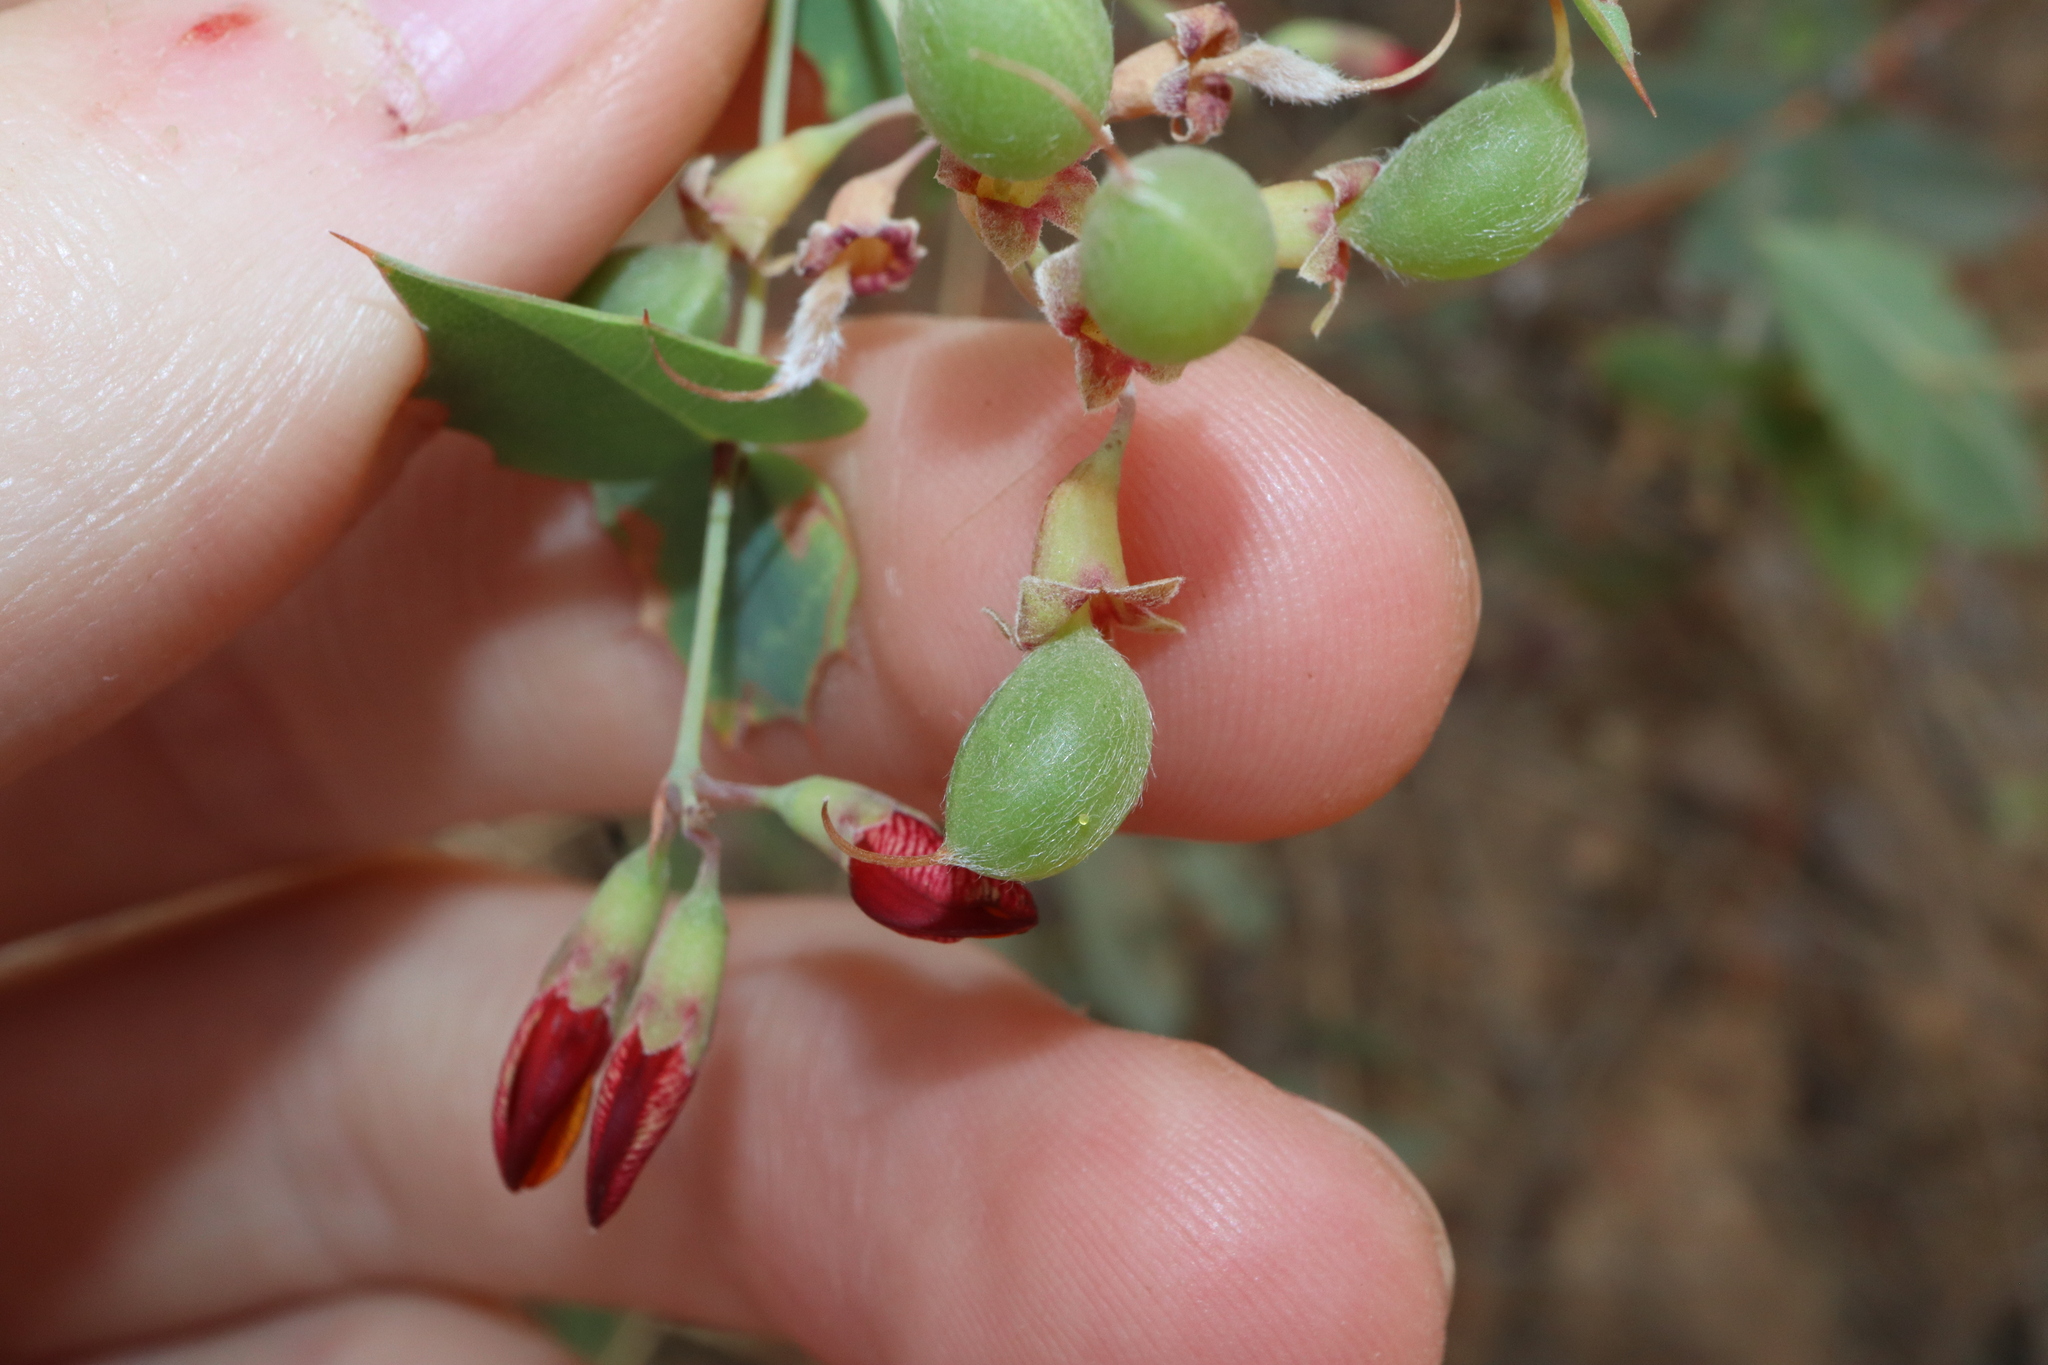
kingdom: Plantae
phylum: Tracheophyta
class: Magnoliopsida
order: Fabales
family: Fabaceae
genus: Gastrolobium
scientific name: Gastrolobium spinosum
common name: Prickly poison
